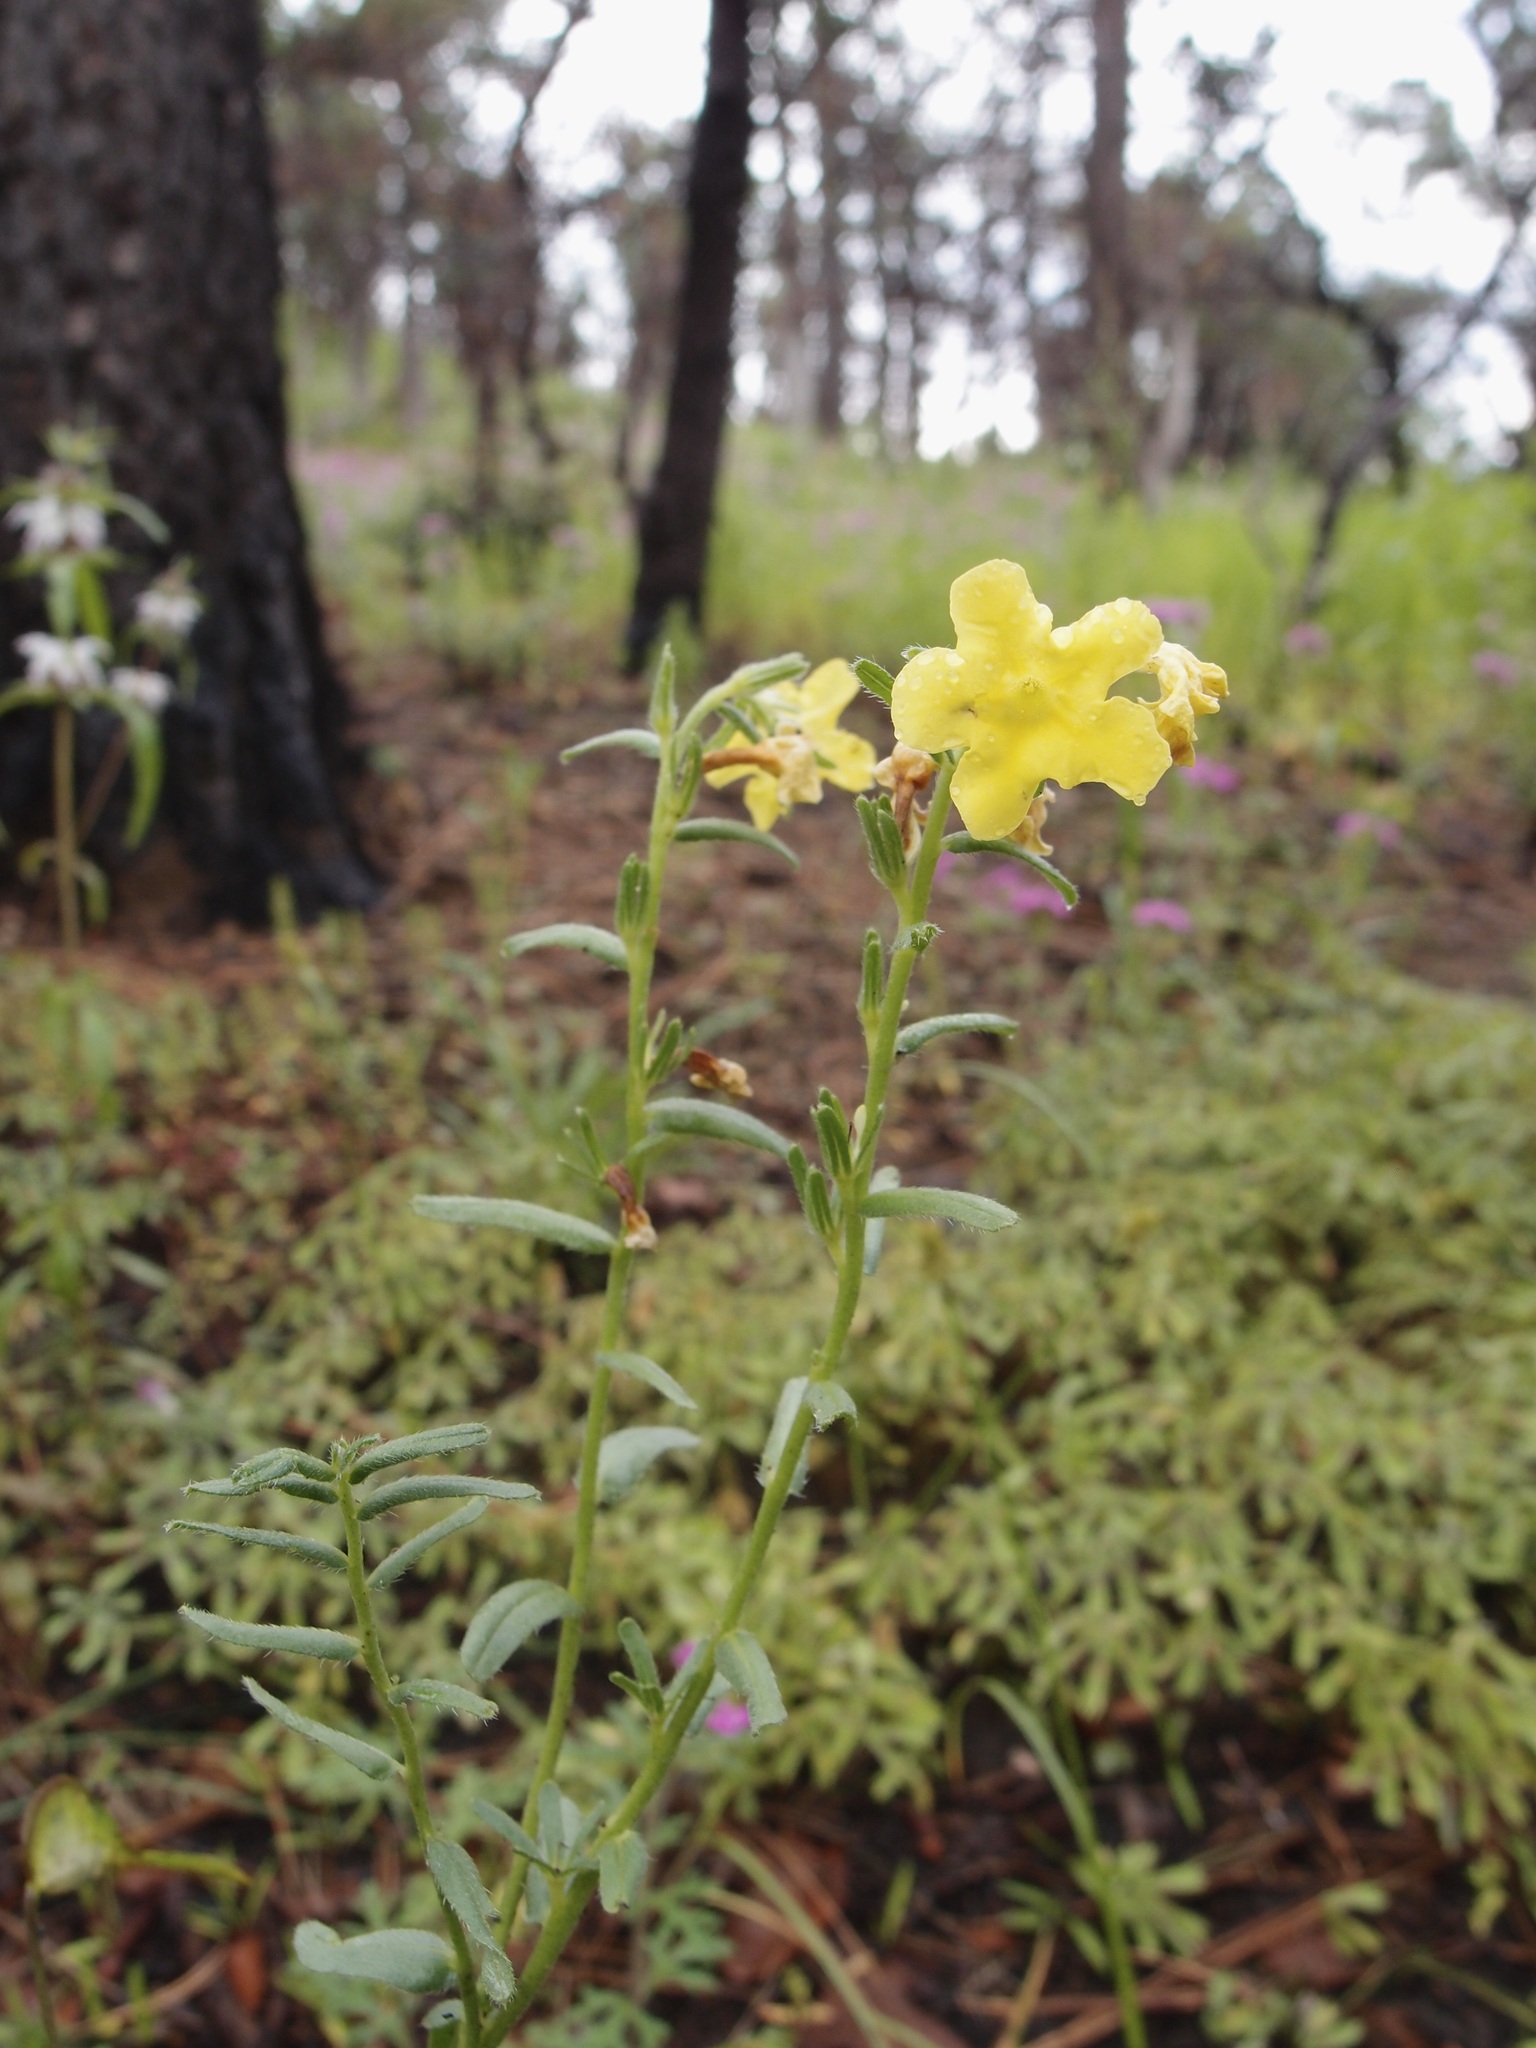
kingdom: Plantae
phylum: Tracheophyta
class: Magnoliopsida
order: Boraginales
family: Boraginaceae
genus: Lithospermum
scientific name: Lithospermum cobrense
